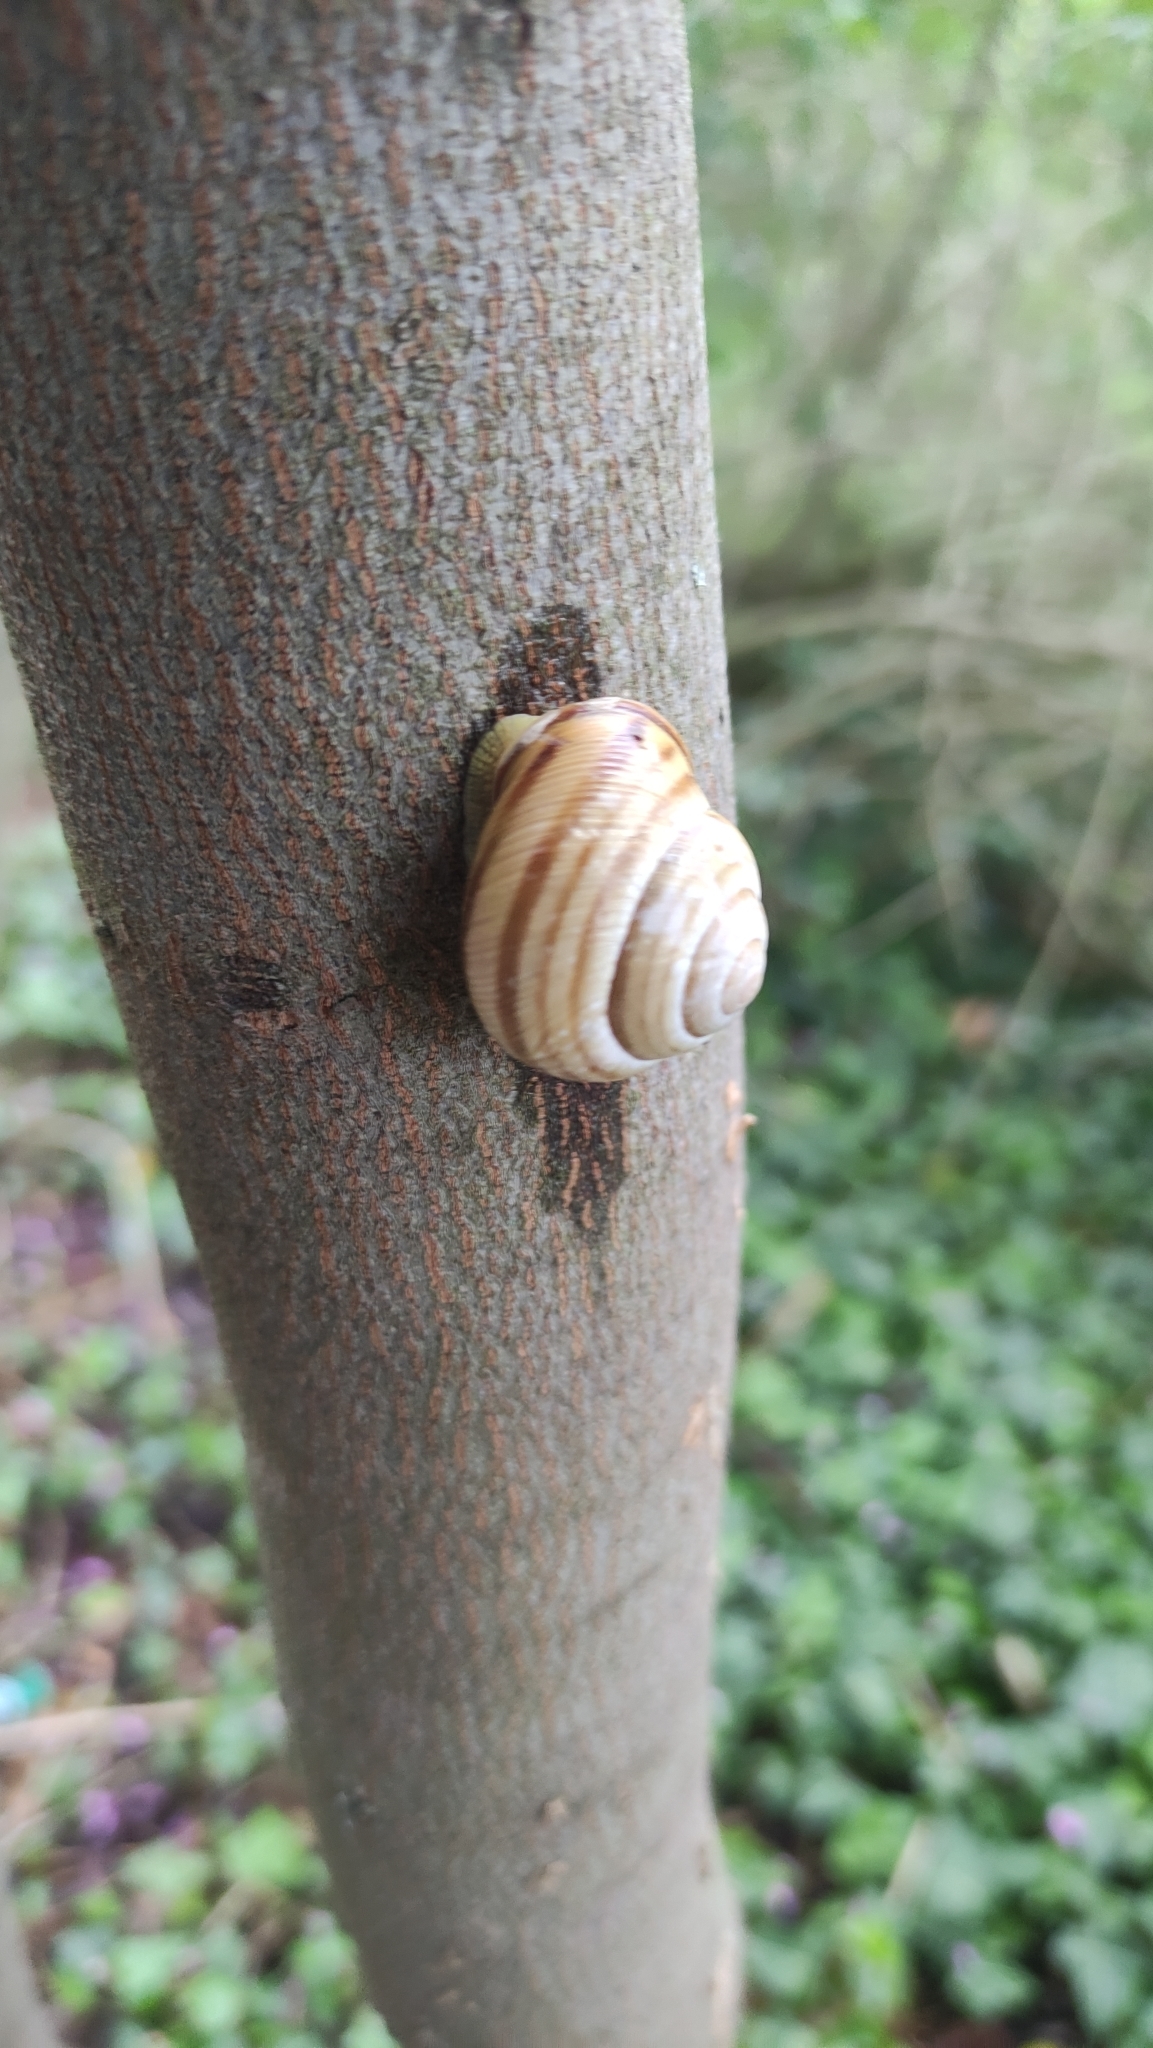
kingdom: Animalia
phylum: Mollusca
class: Gastropoda
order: Stylommatophora
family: Helicidae
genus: Caucasotachea
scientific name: Caucasotachea vindobonensis
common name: European helicid land snail
